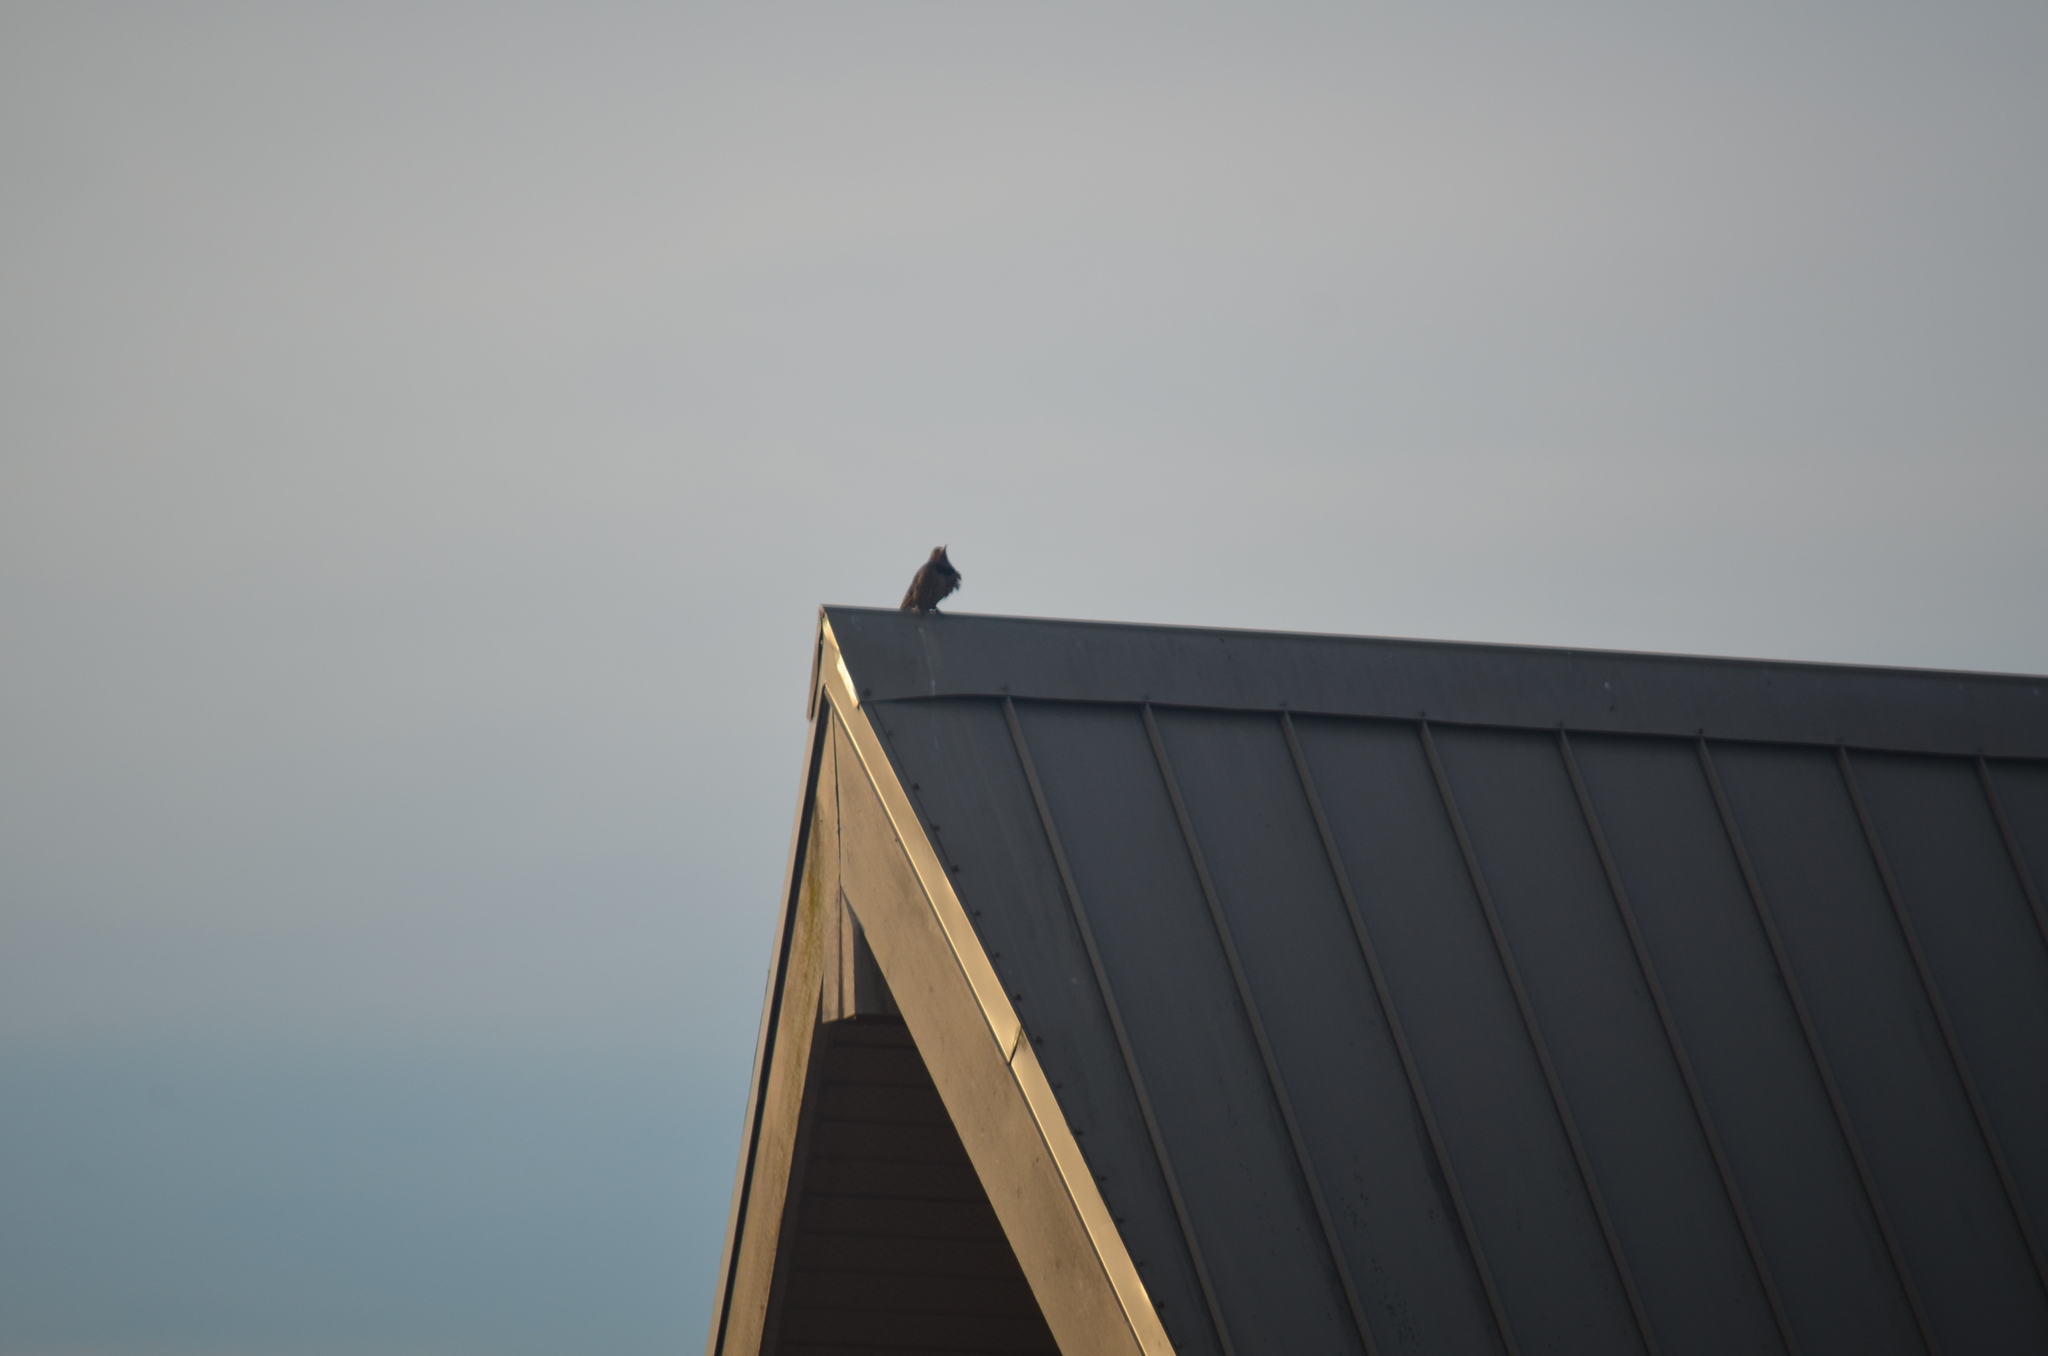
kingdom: Animalia
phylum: Chordata
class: Aves
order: Piciformes
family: Picidae
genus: Colaptes
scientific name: Colaptes auratus
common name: Northern flicker
